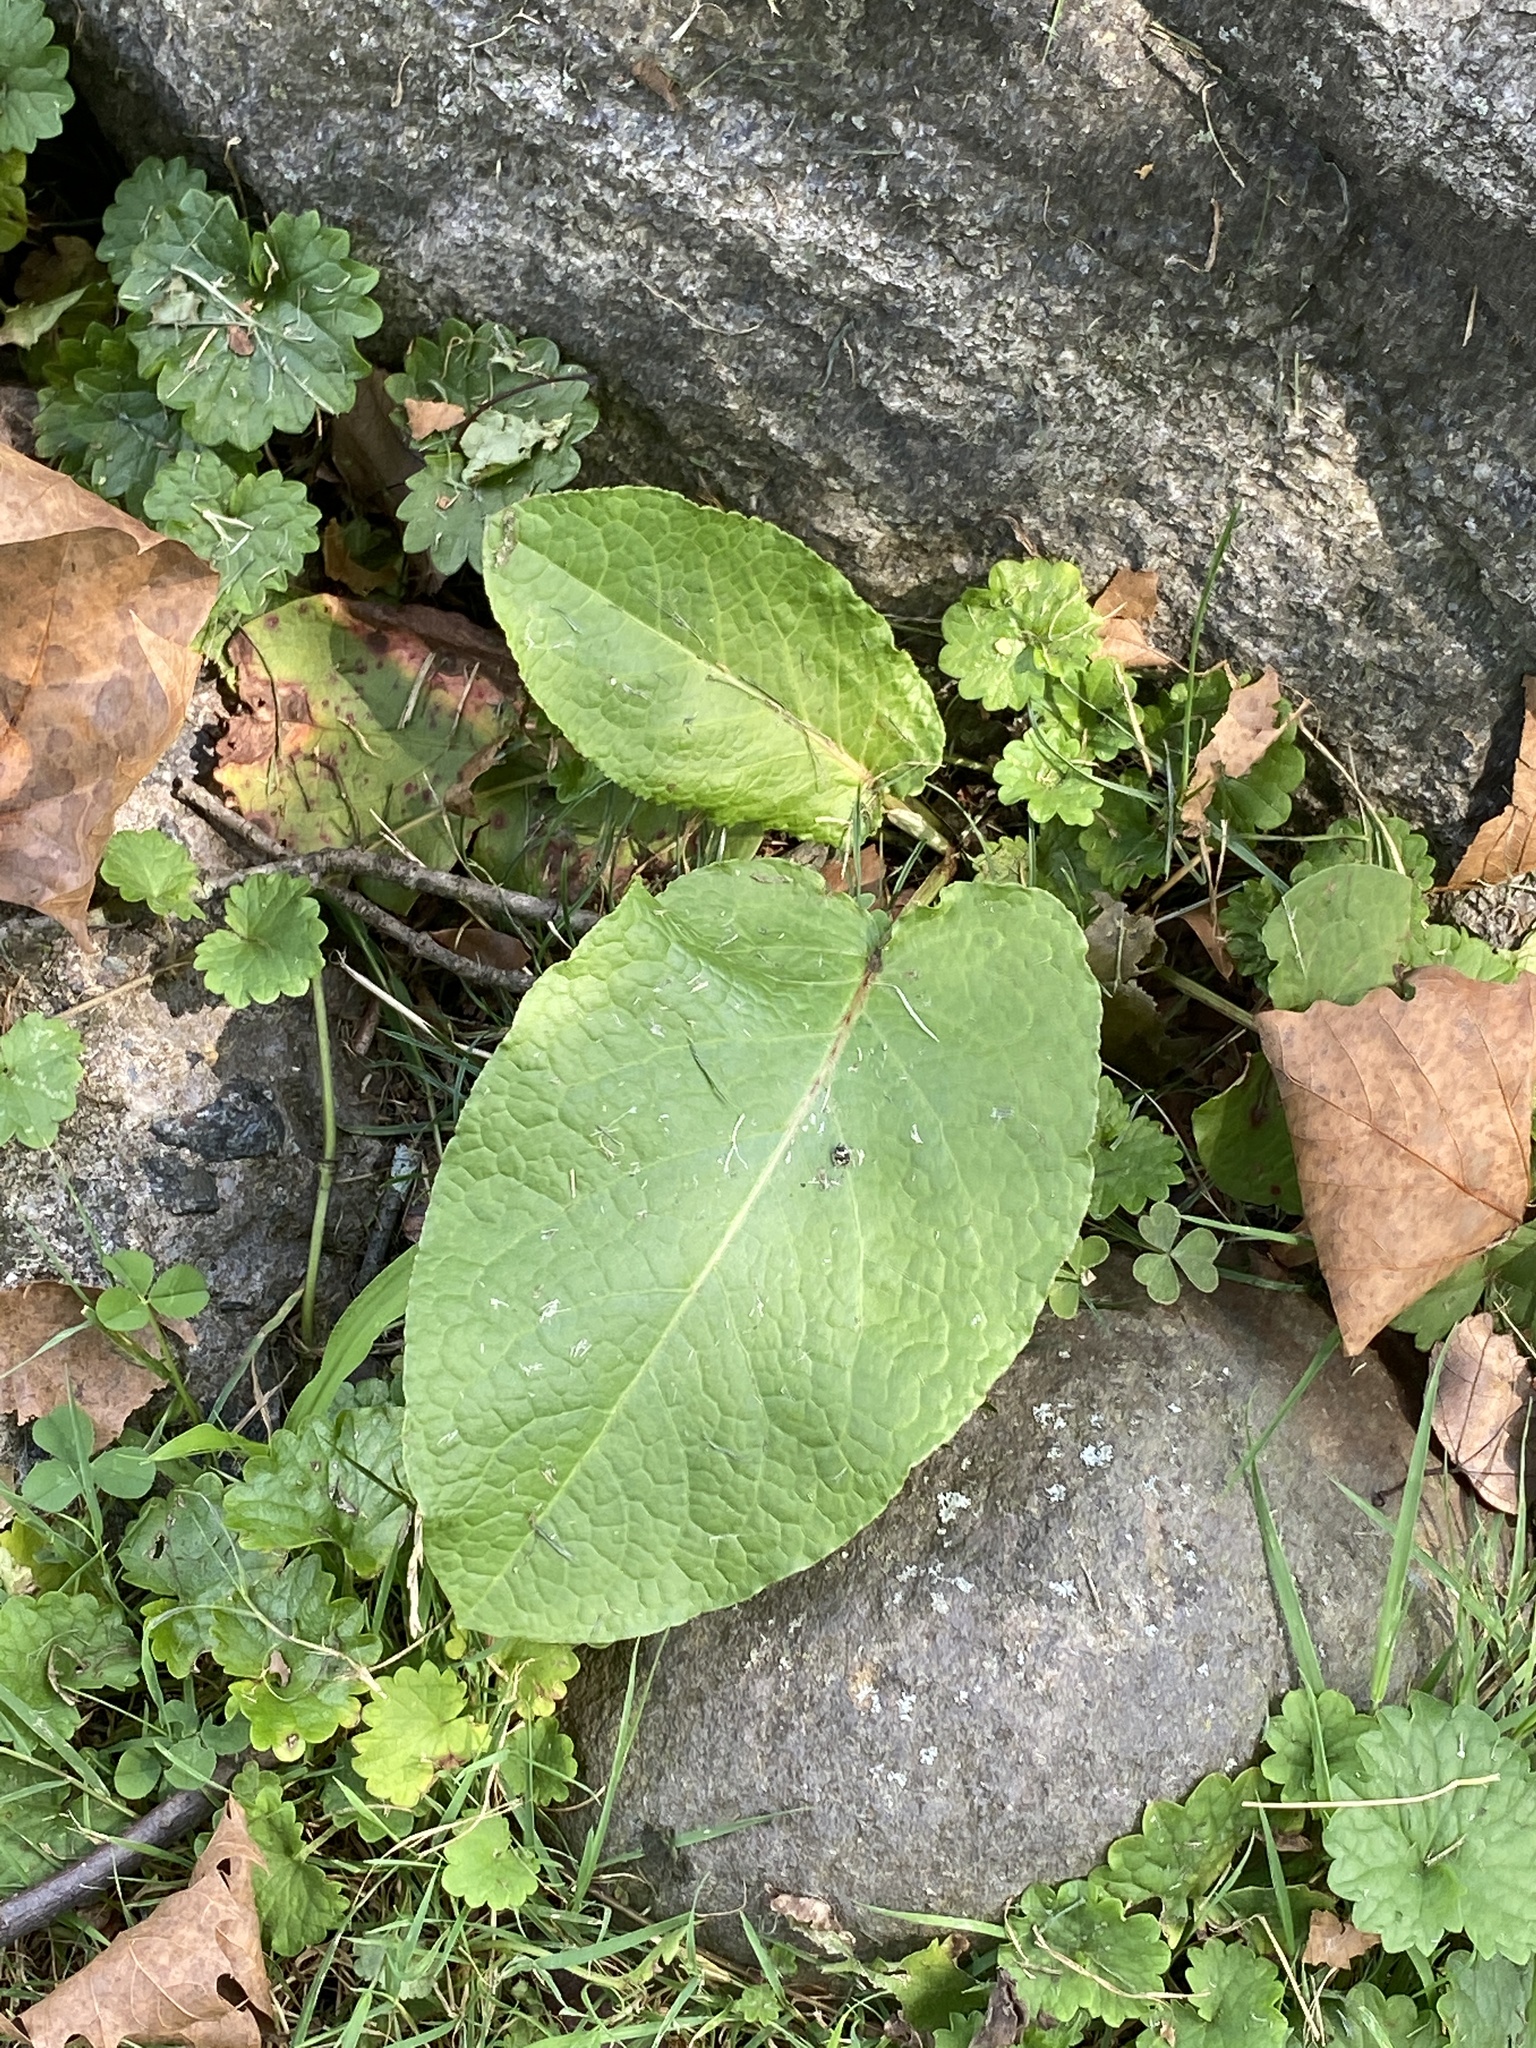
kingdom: Plantae
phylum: Tracheophyta
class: Magnoliopsida
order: Caryophyllales
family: Polygonaceae
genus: Rumex
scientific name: Rumex obtusifolius
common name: Bitter dock
